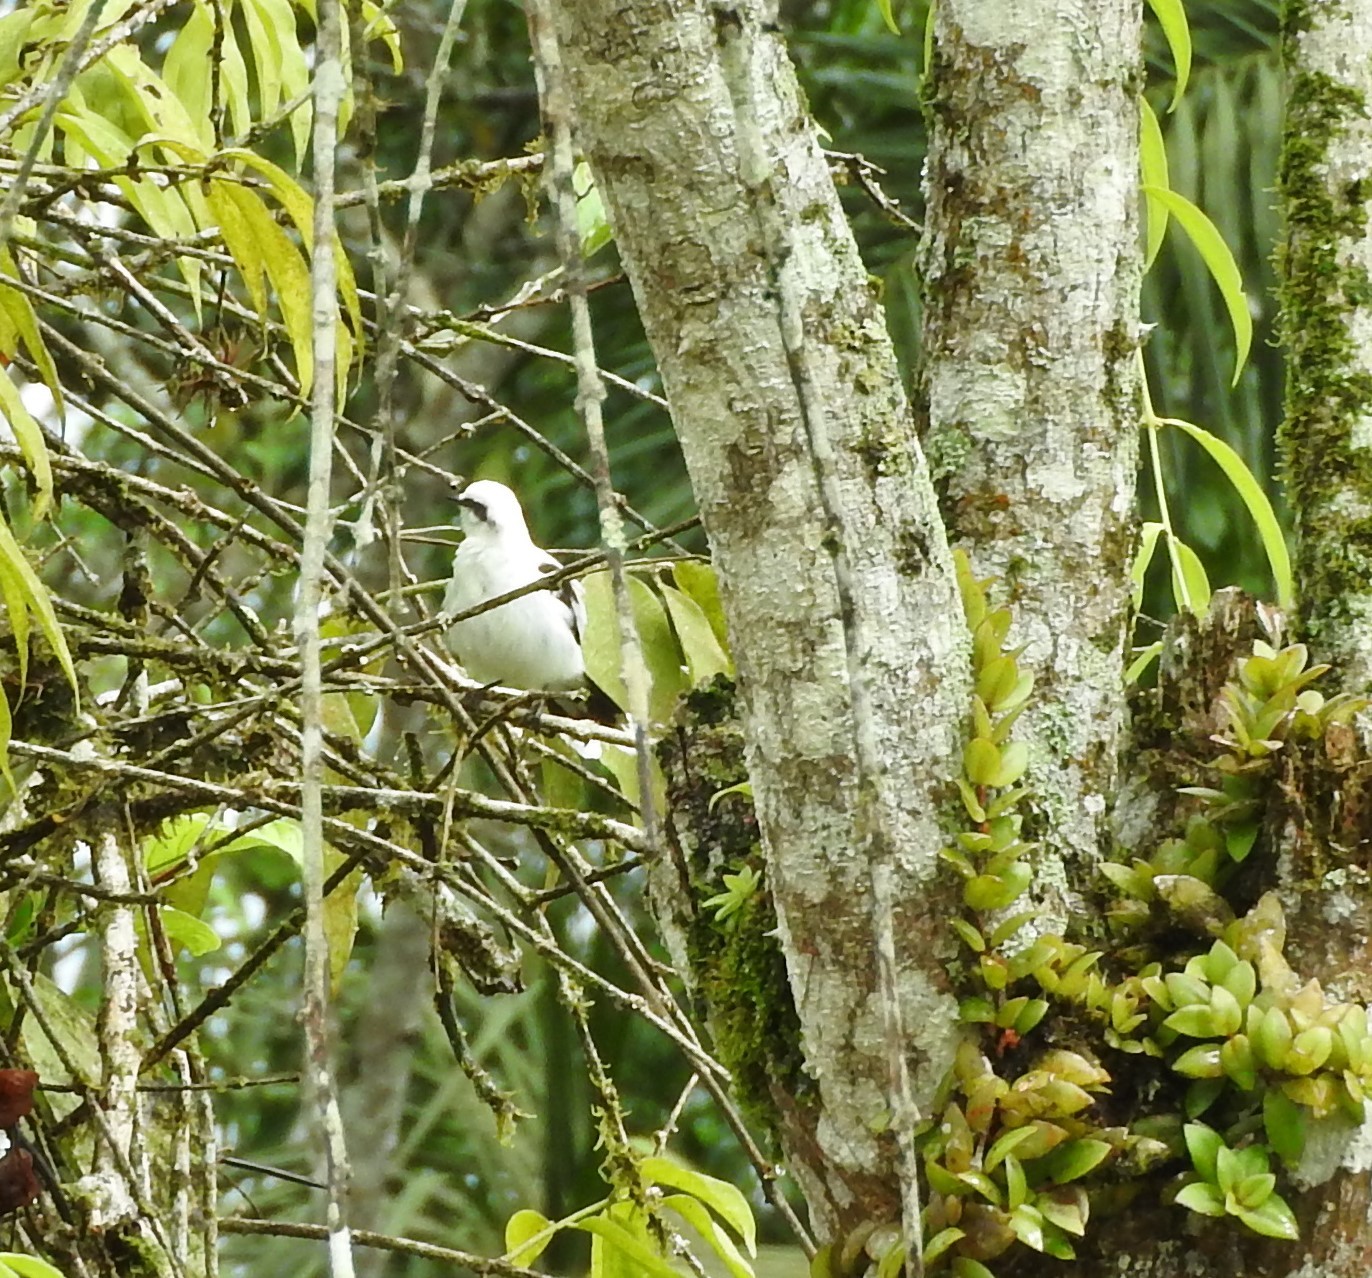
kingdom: Animalia
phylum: Chordata
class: Aves
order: Passeriformes
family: Tyrannidae
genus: Fluvicola
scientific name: Fluvicola nengeta
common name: Masked water tyrant
